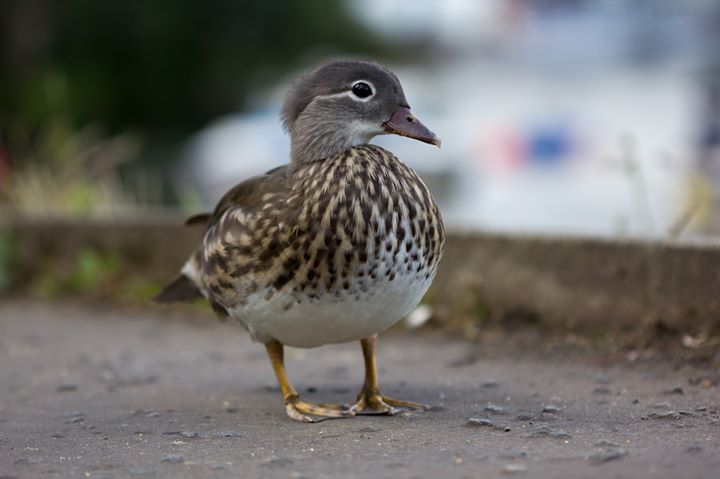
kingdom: Animalia
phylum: Chordata
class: Aves
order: Anseriformes
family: Anatidae
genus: Aix
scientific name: Aix galericulata
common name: Mandarin duck
